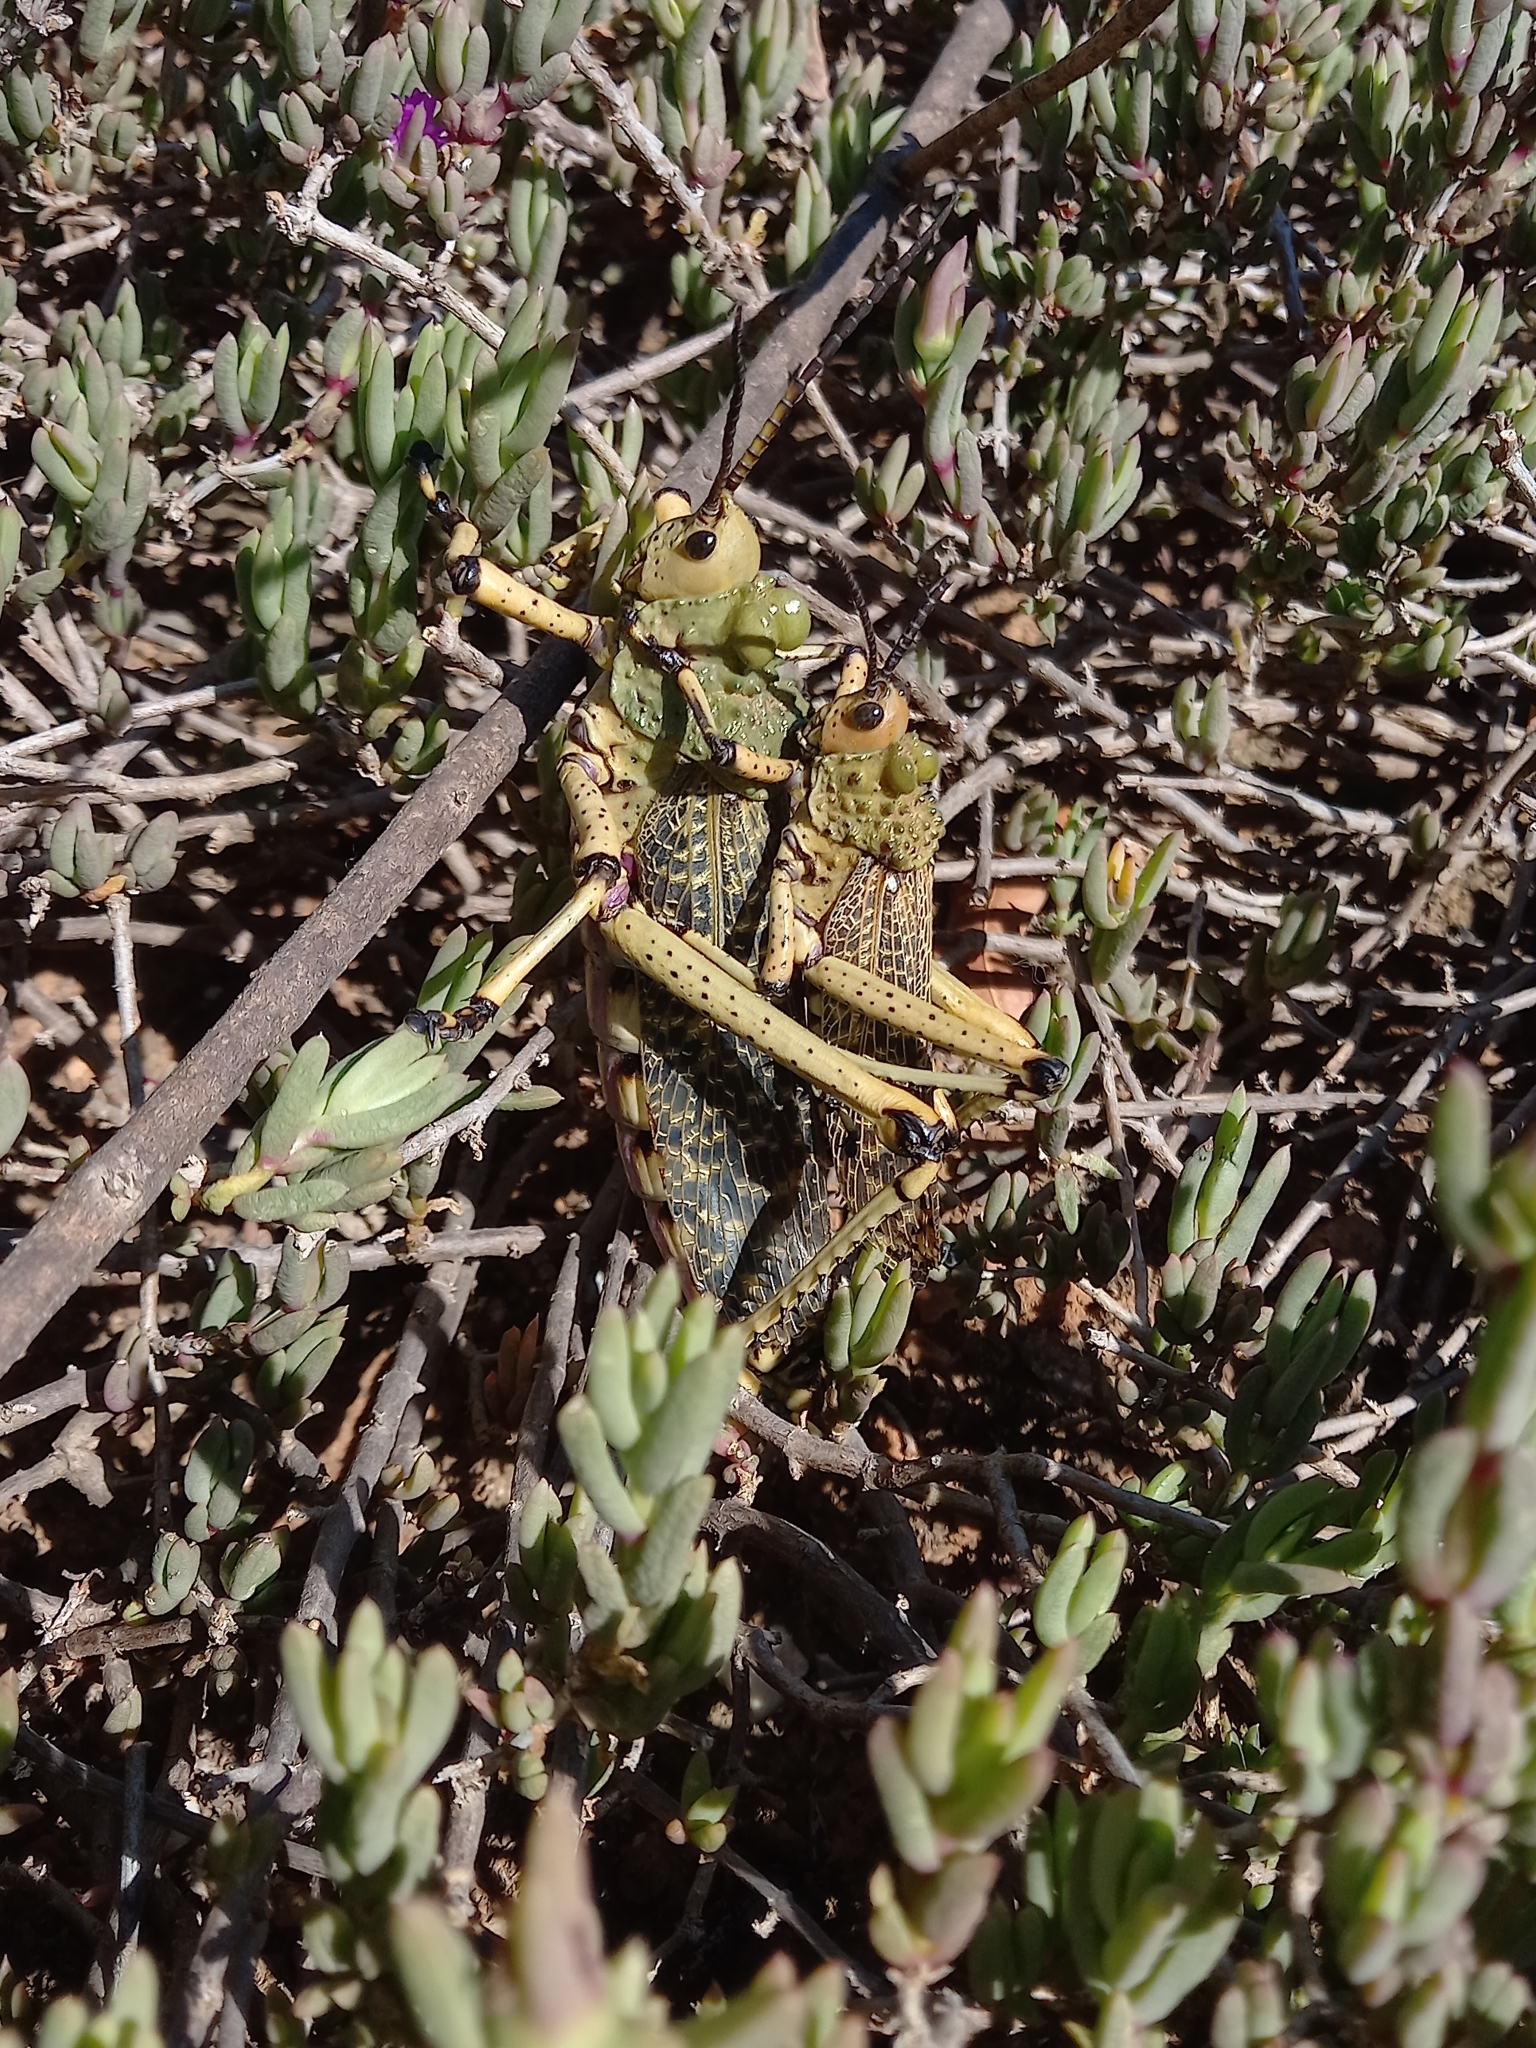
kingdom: Animalia
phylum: Arthropoda
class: Insecta
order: Orthoptera
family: Pyrgomorphidae
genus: Phymateus
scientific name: Phymateus leprosus
